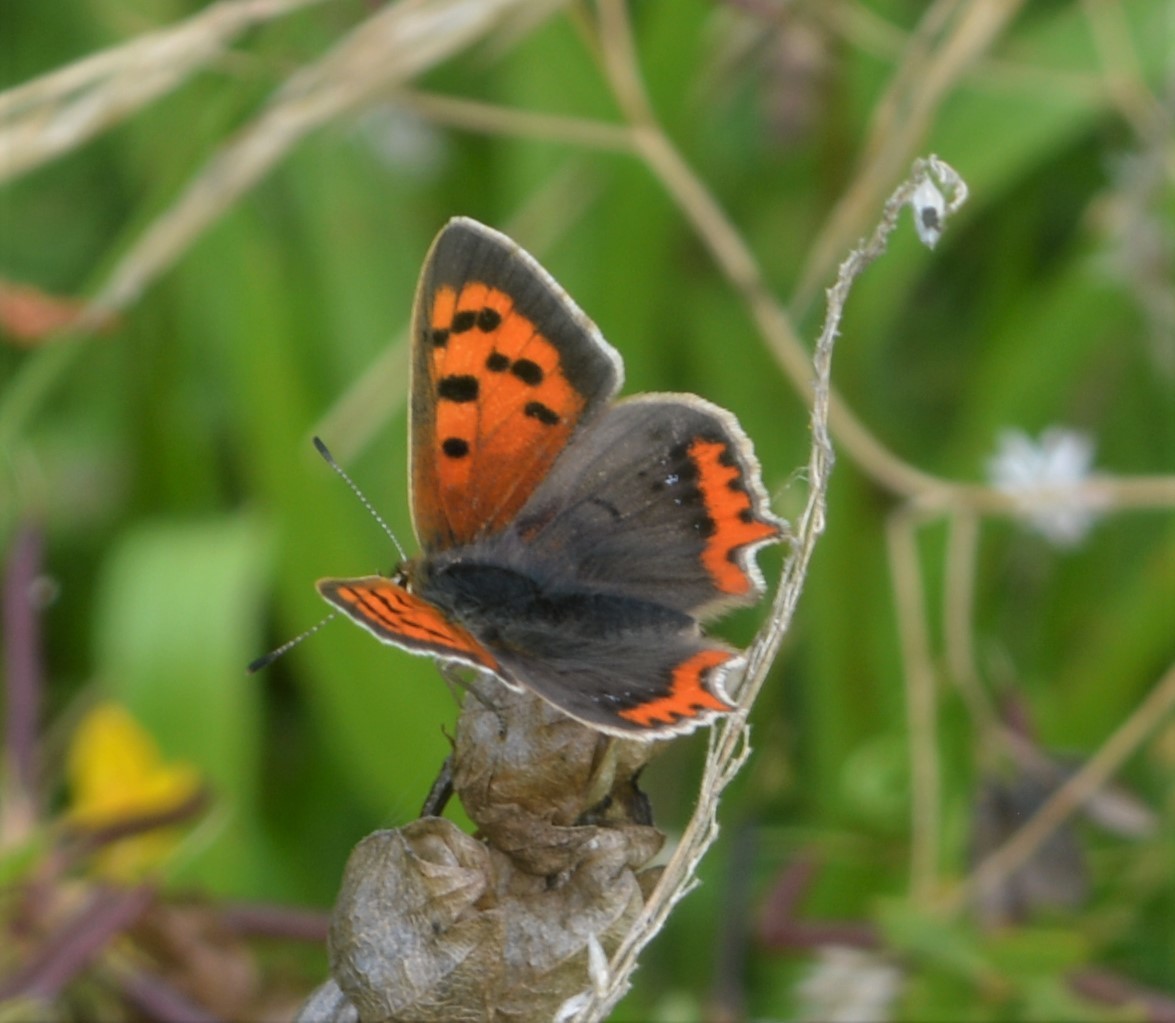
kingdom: Animalia
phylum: Arthropoda
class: Insecta
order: Lepidoptera
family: Lycaenidae
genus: Lycaena
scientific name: Lycaena phlaeas
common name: Small copper
